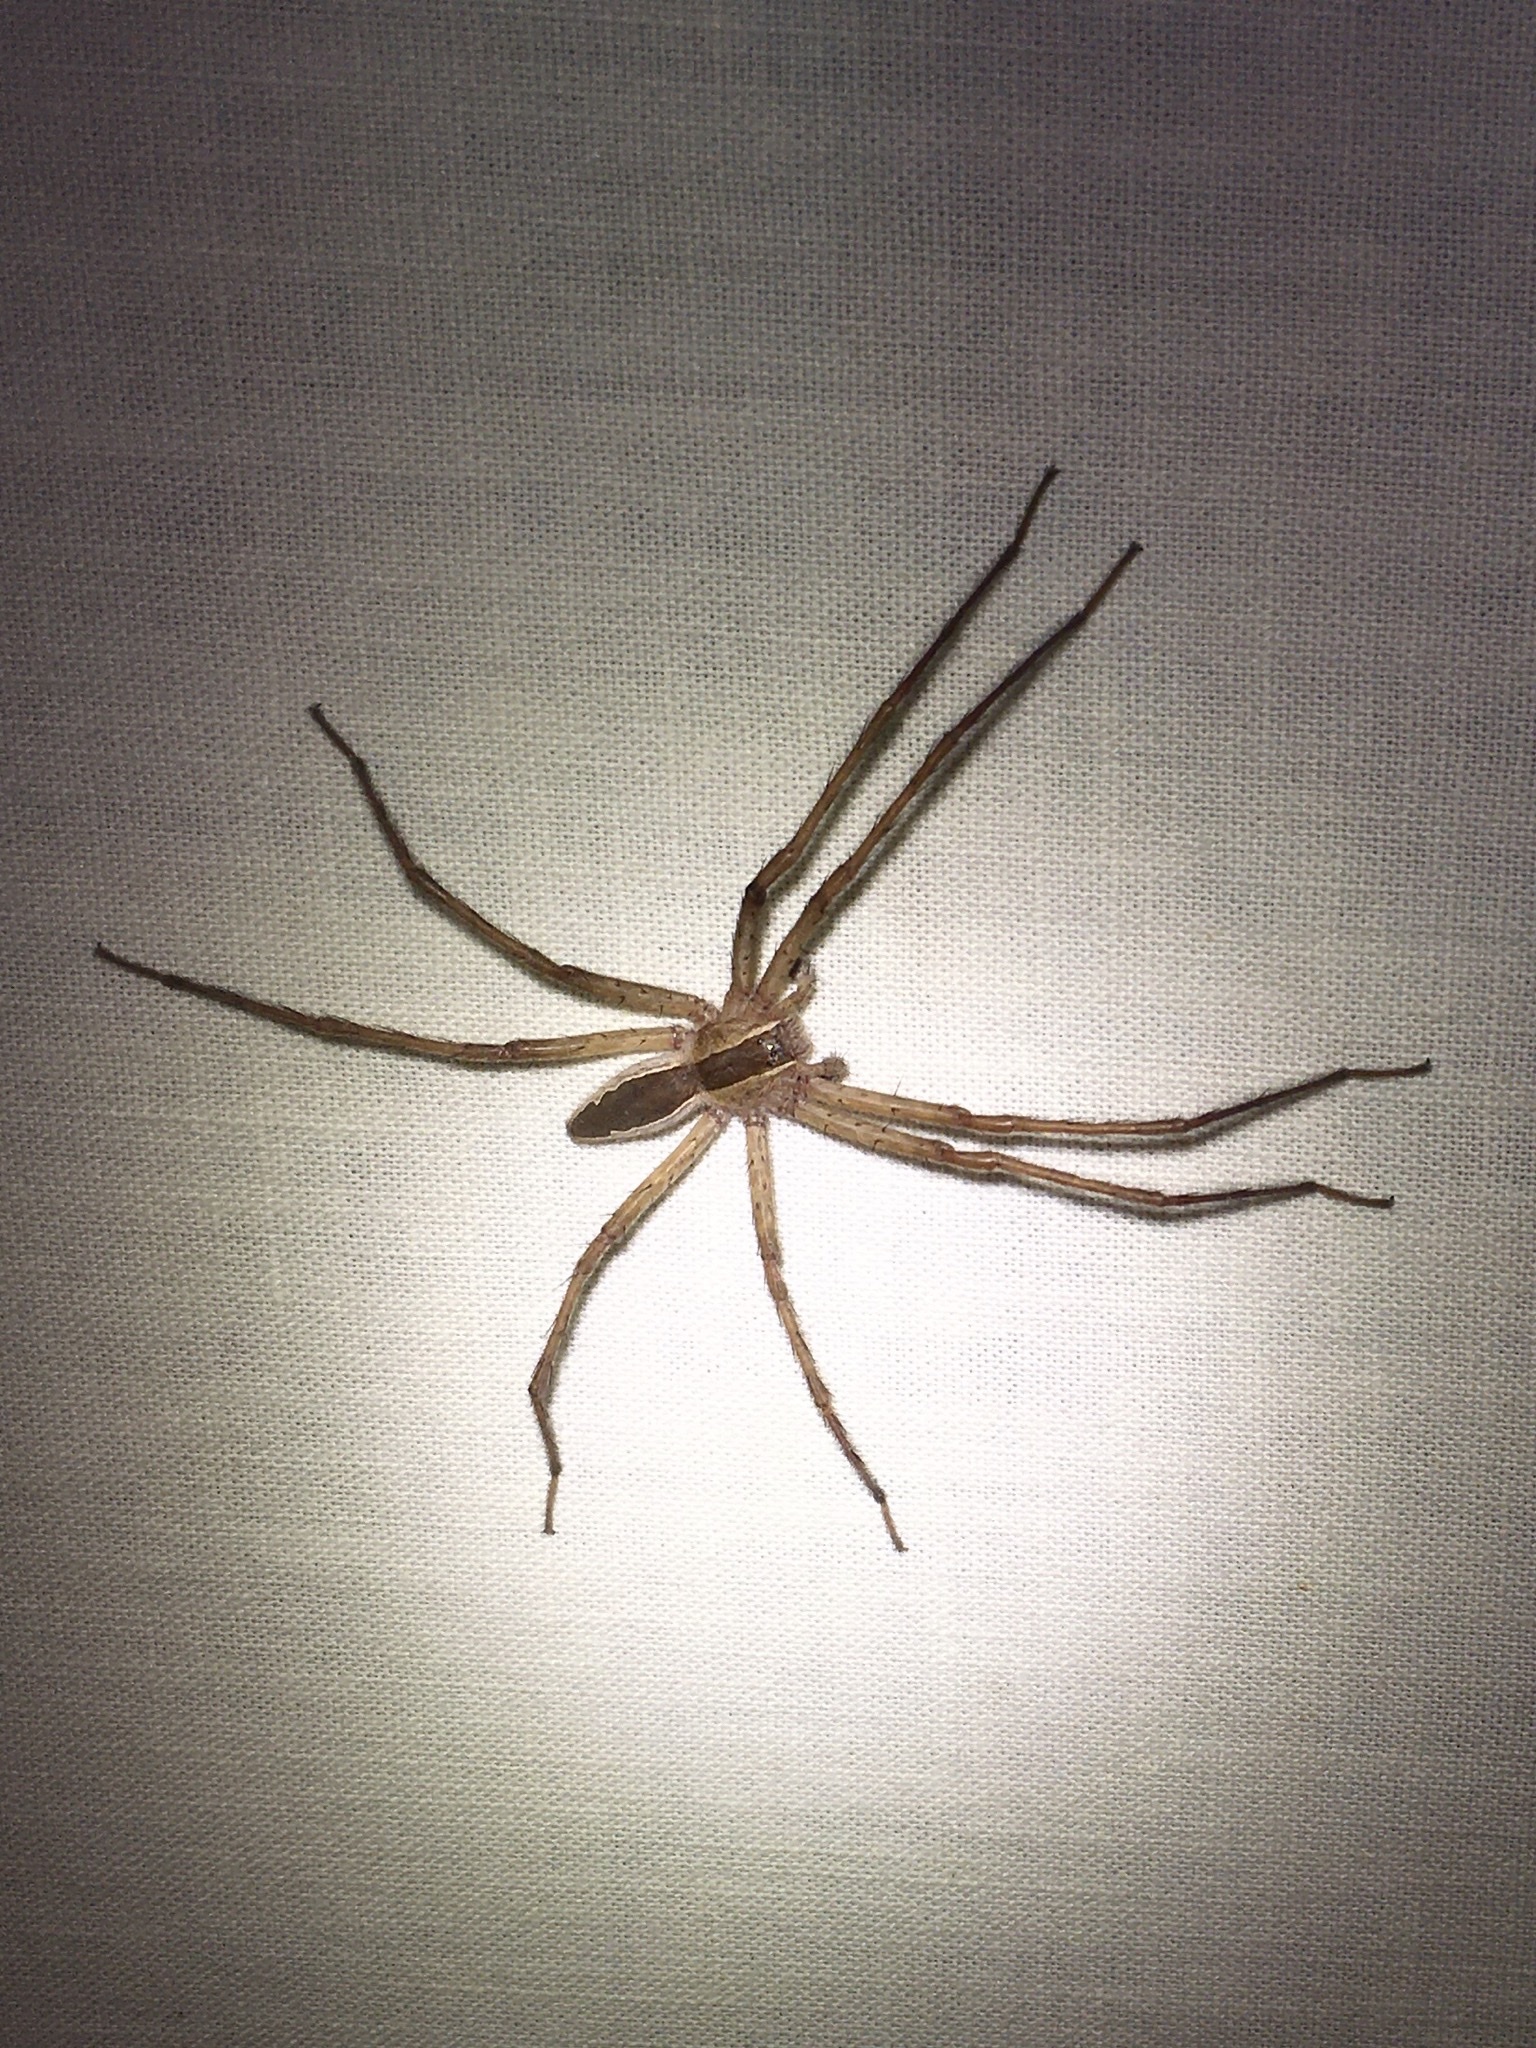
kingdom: Animalia
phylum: Arthropoda
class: Arachnida
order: Araneae
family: Pisauridae
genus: Pisaurina
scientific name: Pisaurina mira
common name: American nursery web spider
